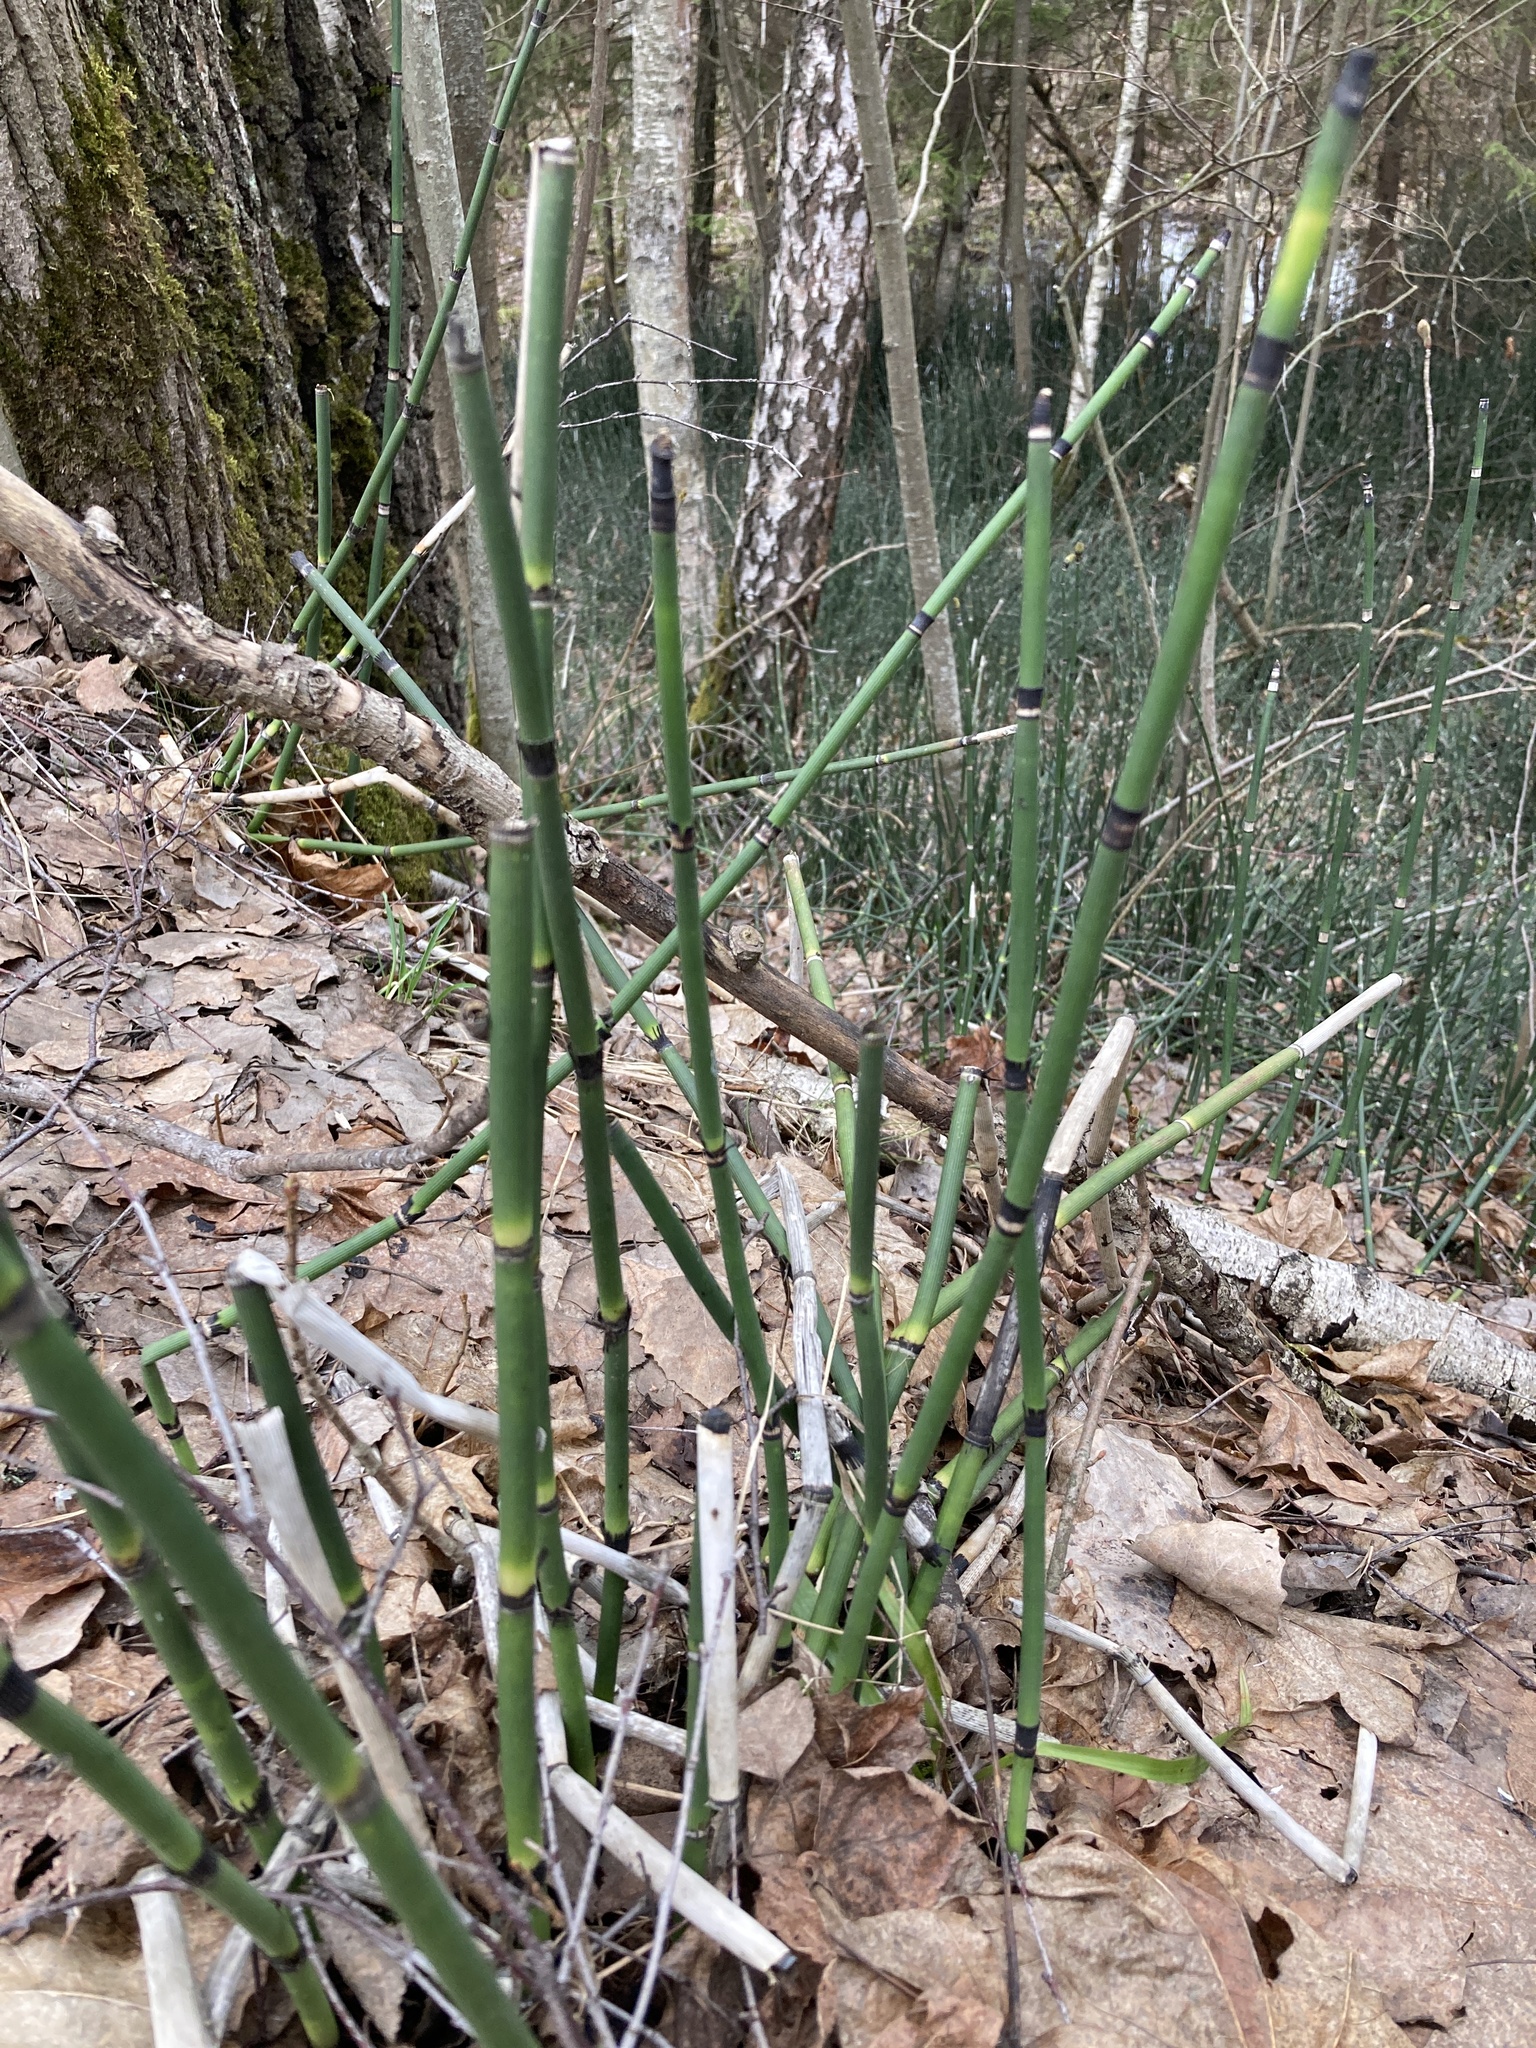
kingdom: Plantae
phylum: Tracheophyta
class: Polypodiopsida
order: Equisetales
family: Equisetaceae
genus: Equisetum
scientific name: Equisetum hyemale
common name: Rough horsetail
